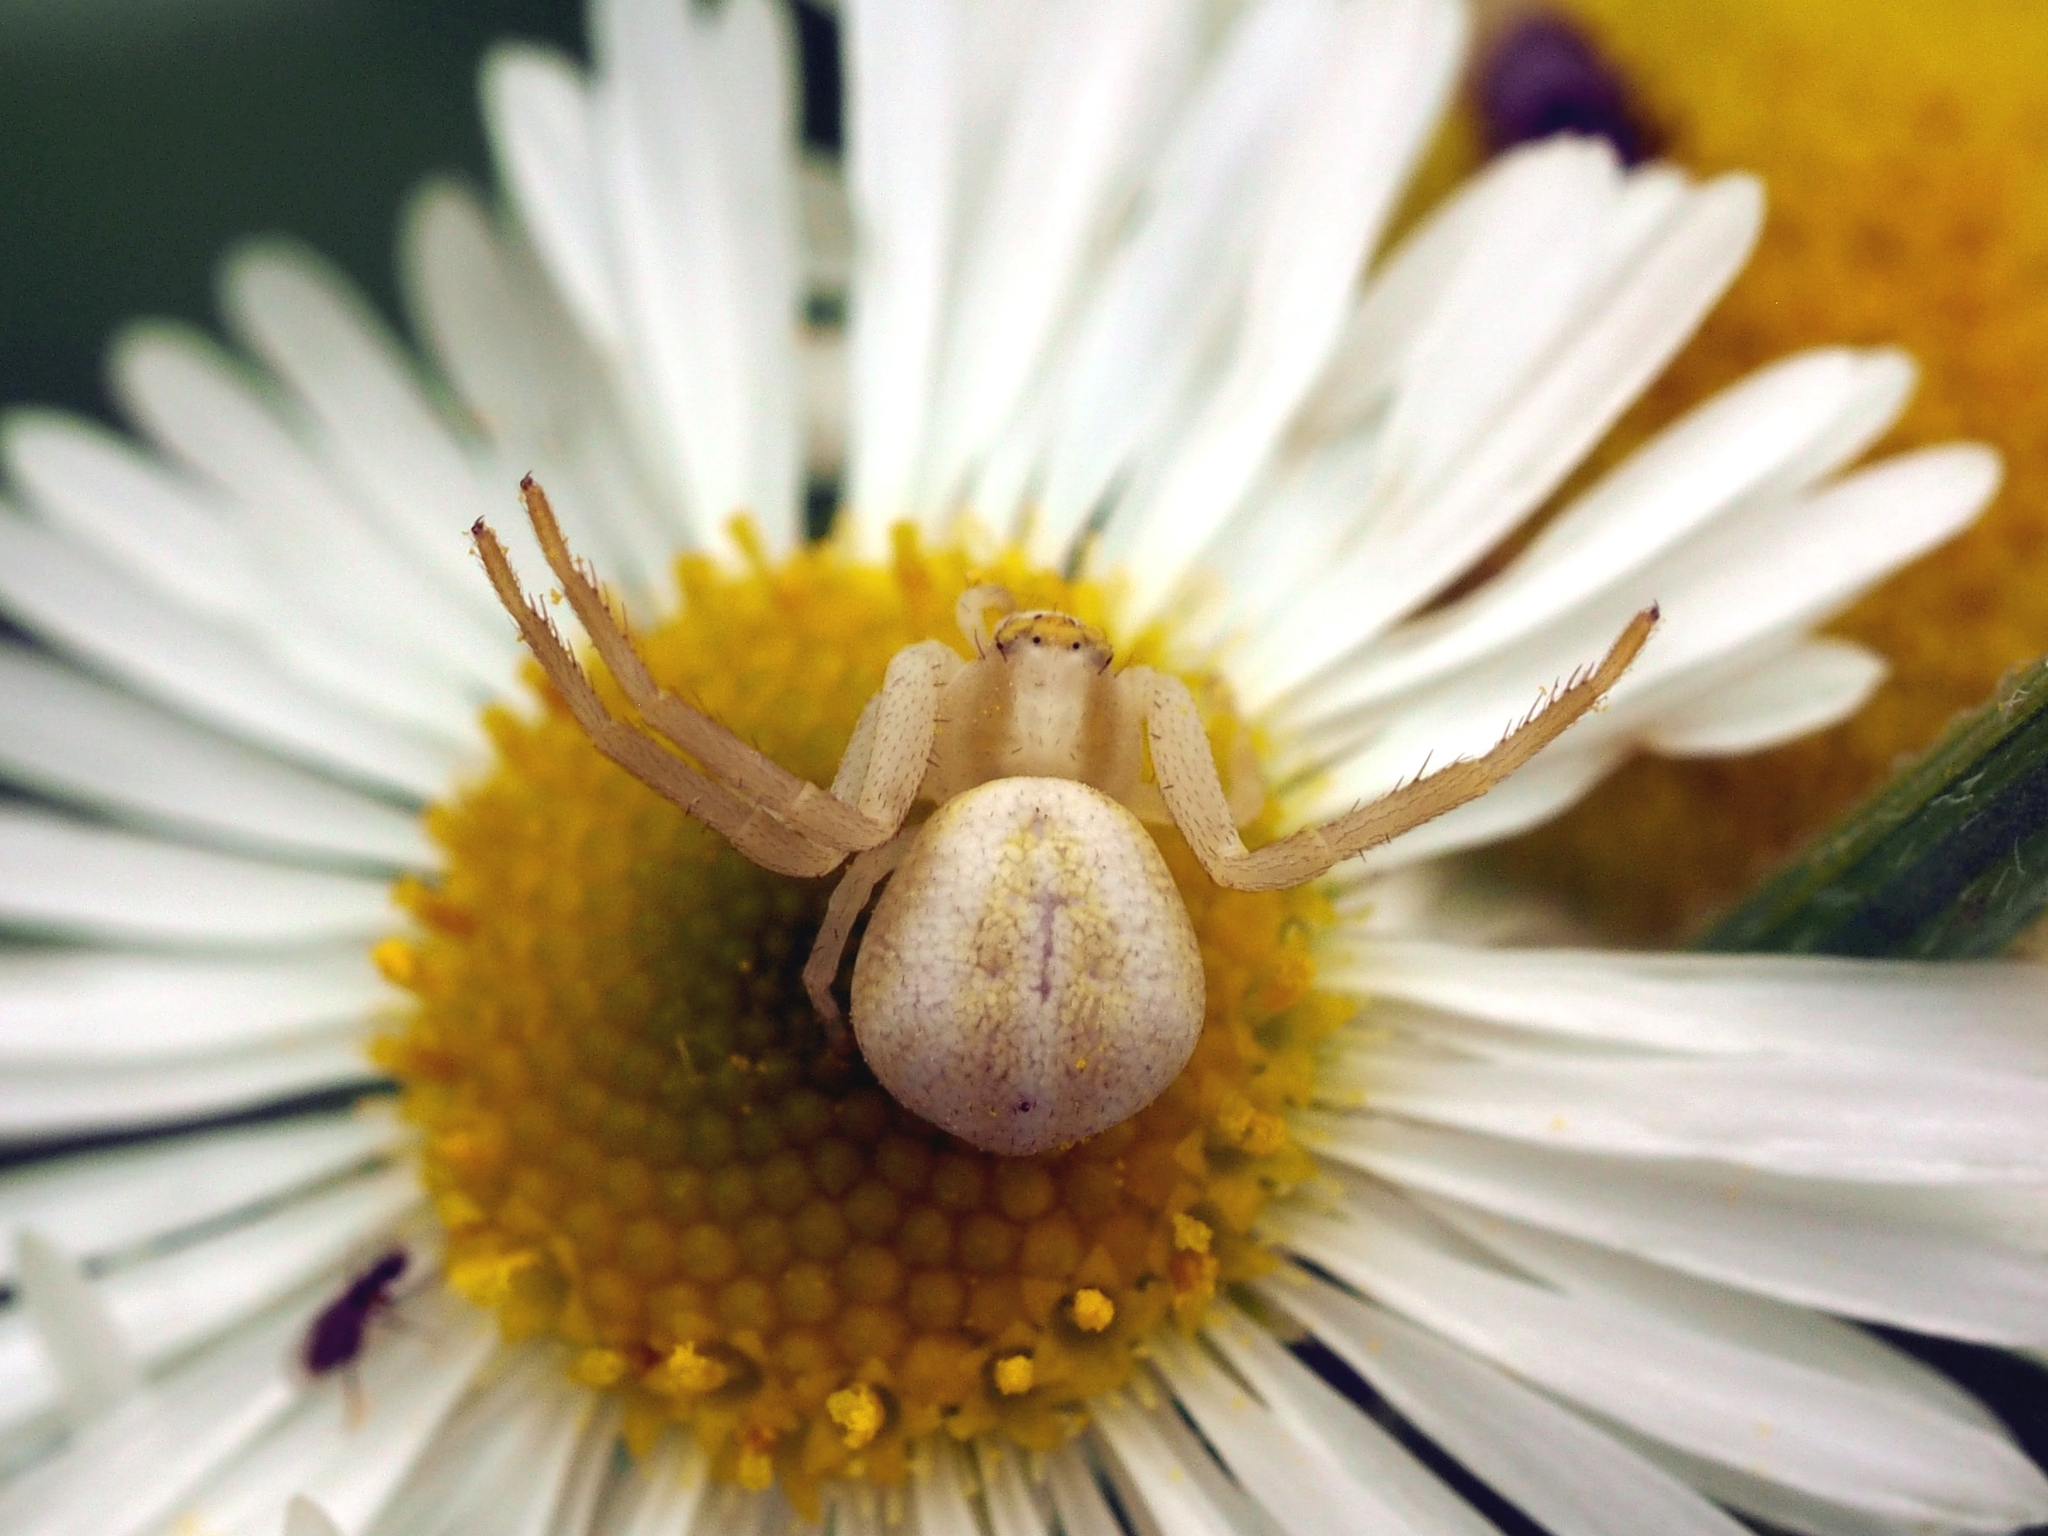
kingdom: Animalia
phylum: Arthropoda
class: Arachnida
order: Araneae
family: Thomisidae
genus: Misumena
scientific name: Misumena vatia
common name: Goldenrod crab spider
